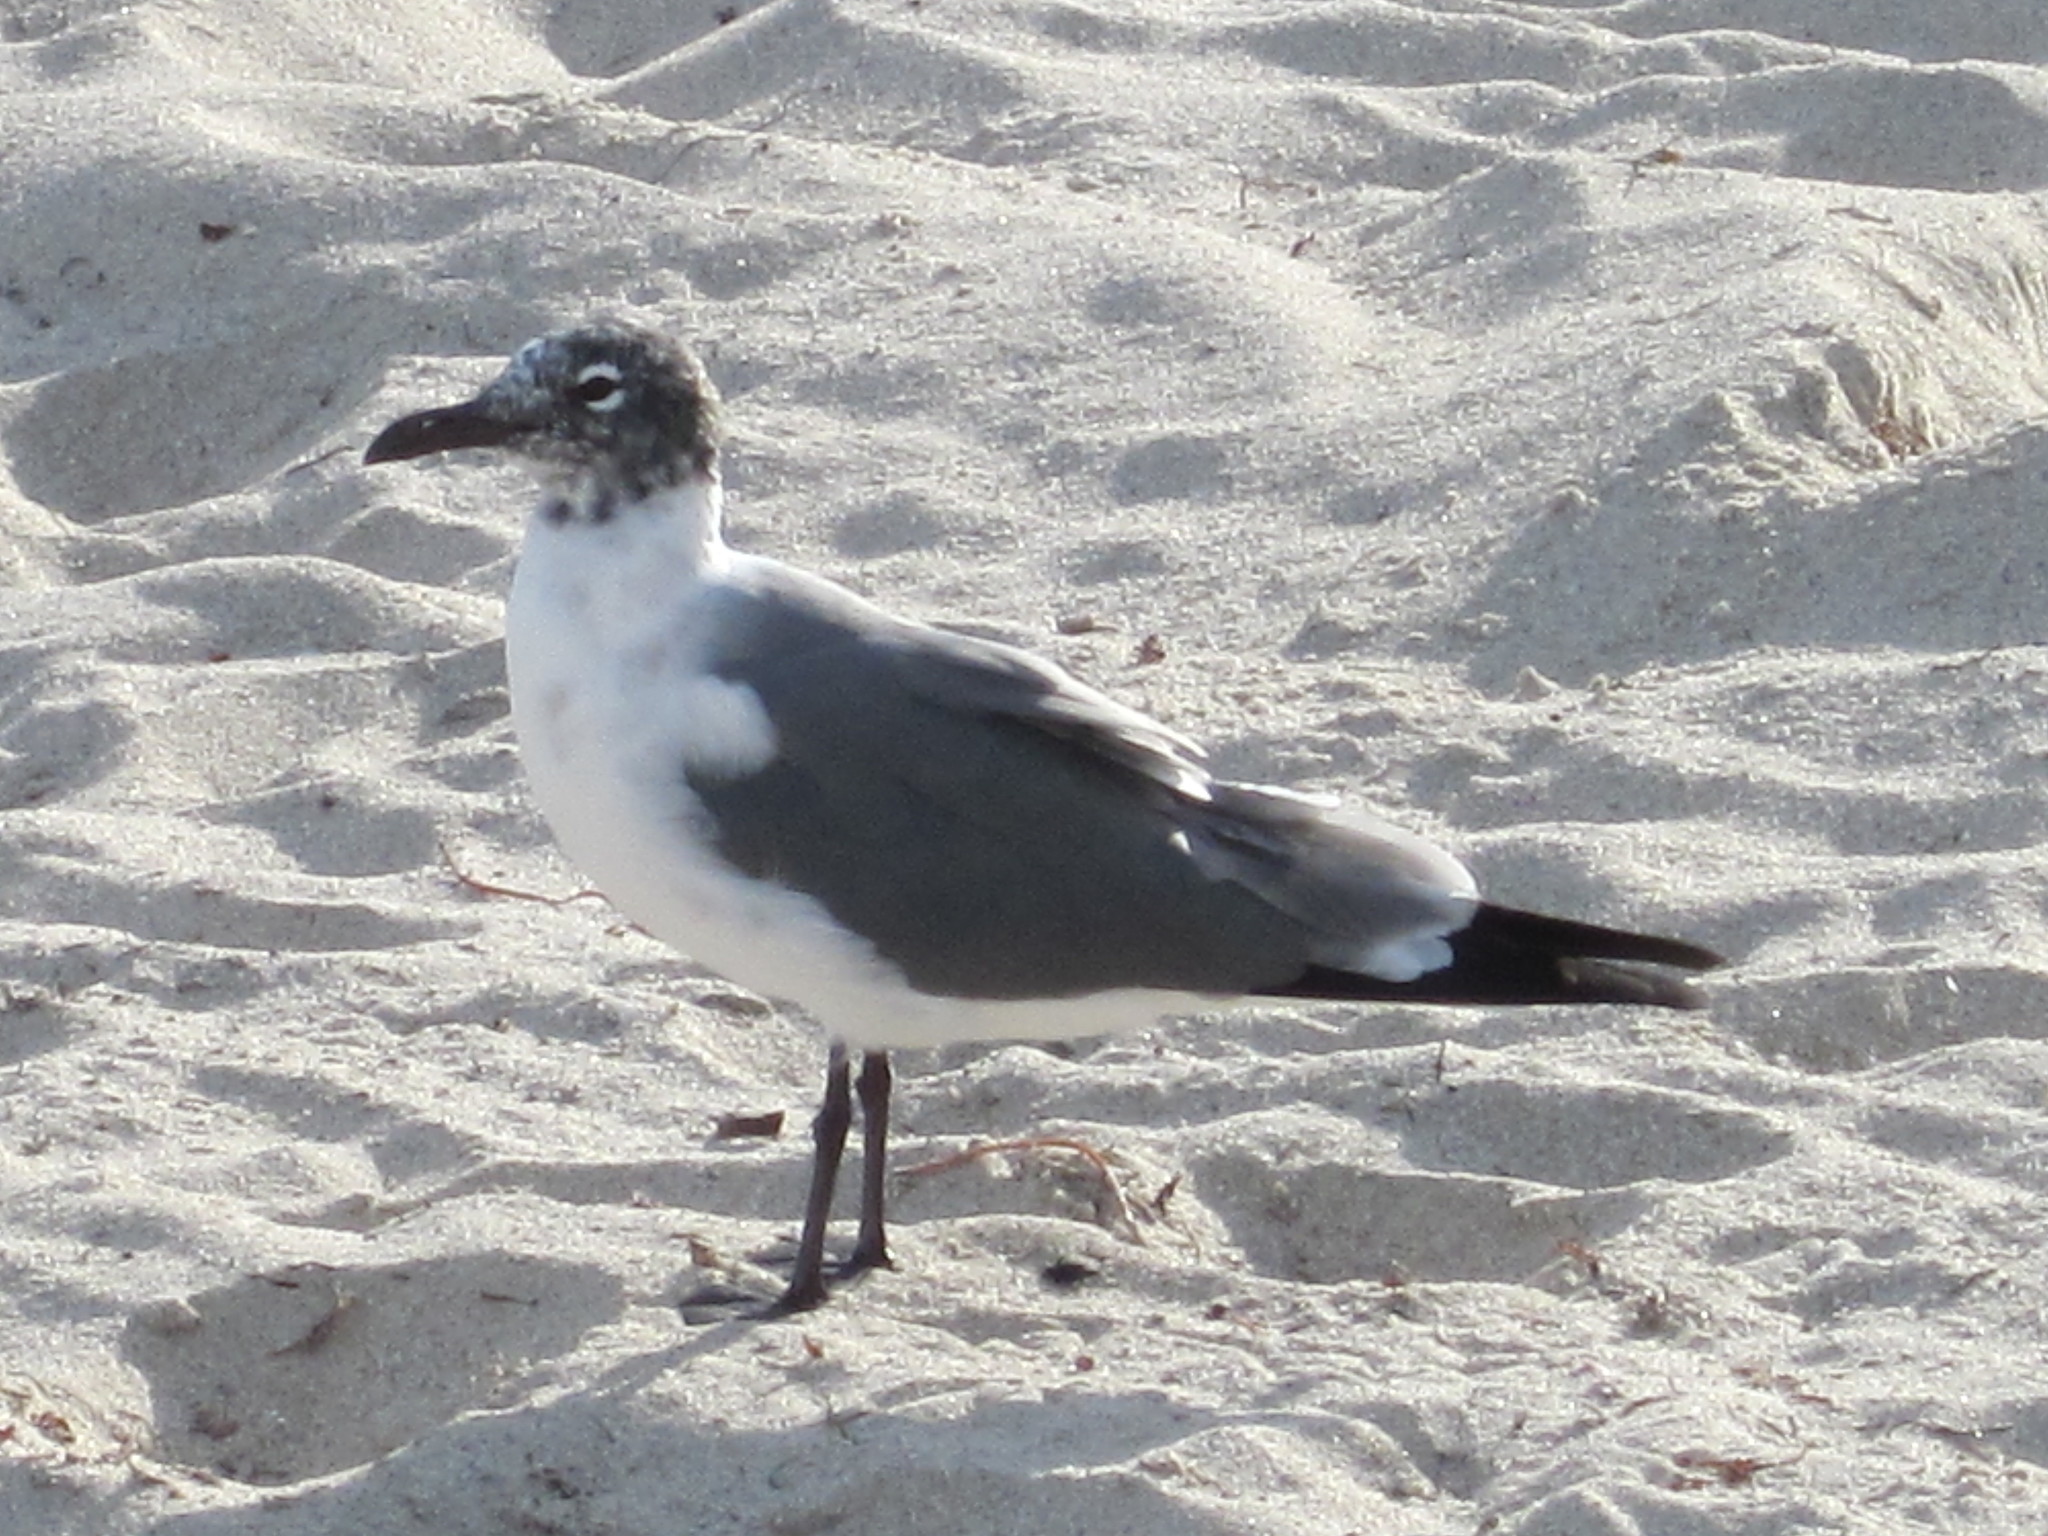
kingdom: Animalia
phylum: Chordata
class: Aves
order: Charadriiformes
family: Laridae
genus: Leucophaeus
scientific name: Leucophaeus atricilla
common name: Laughing gull
